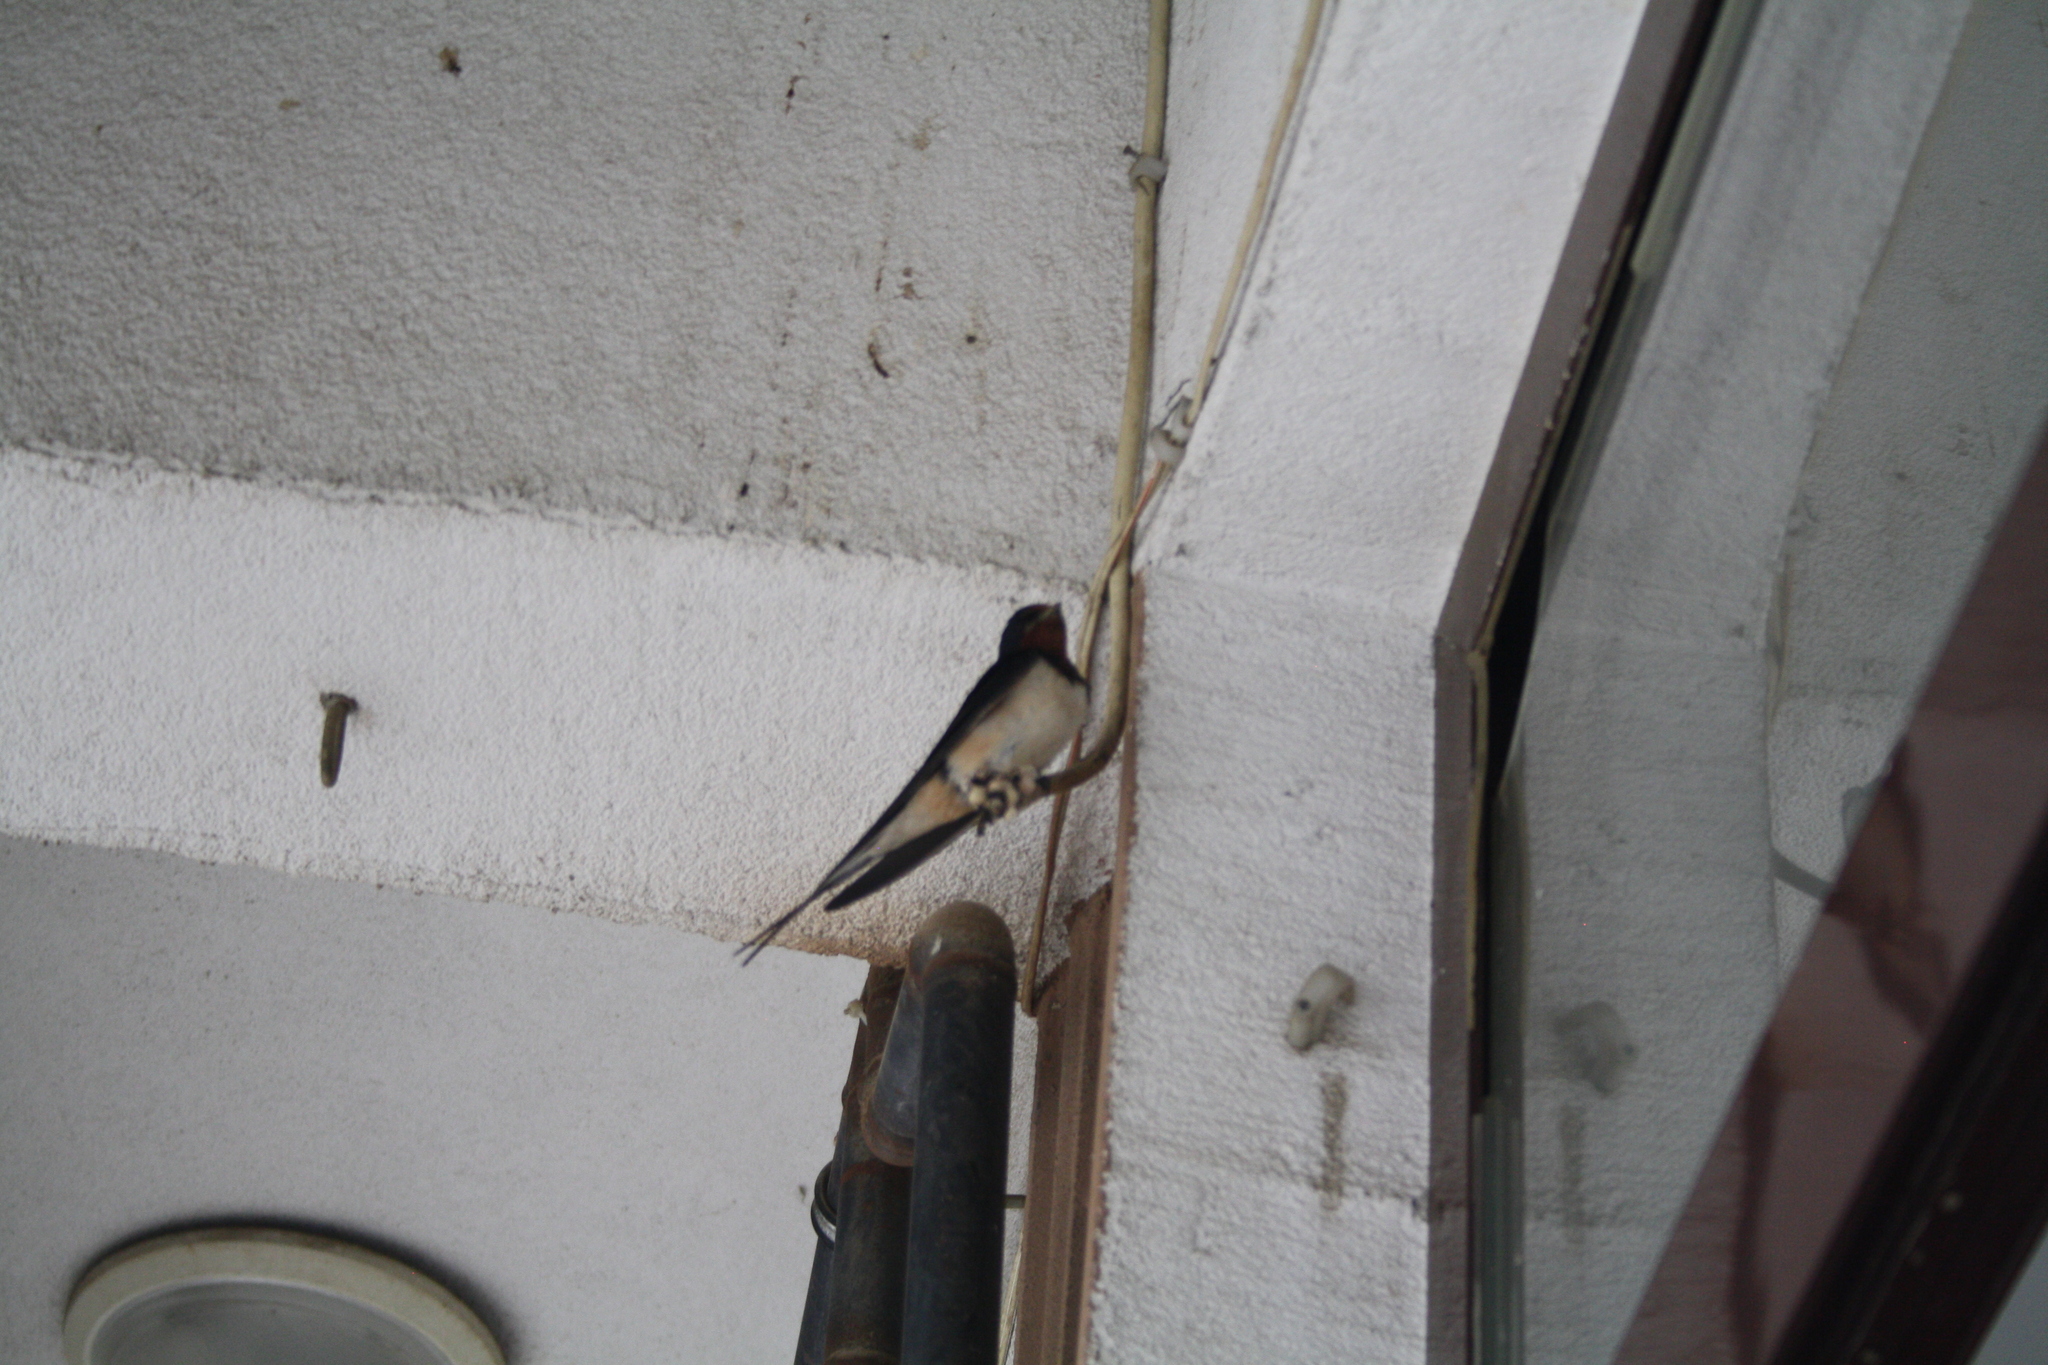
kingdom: Animalia
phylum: Chordata
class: Aves
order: Passeriformes
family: Hirundinidae
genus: Hirundo
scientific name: Hirundo rustica
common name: Barn swallow
